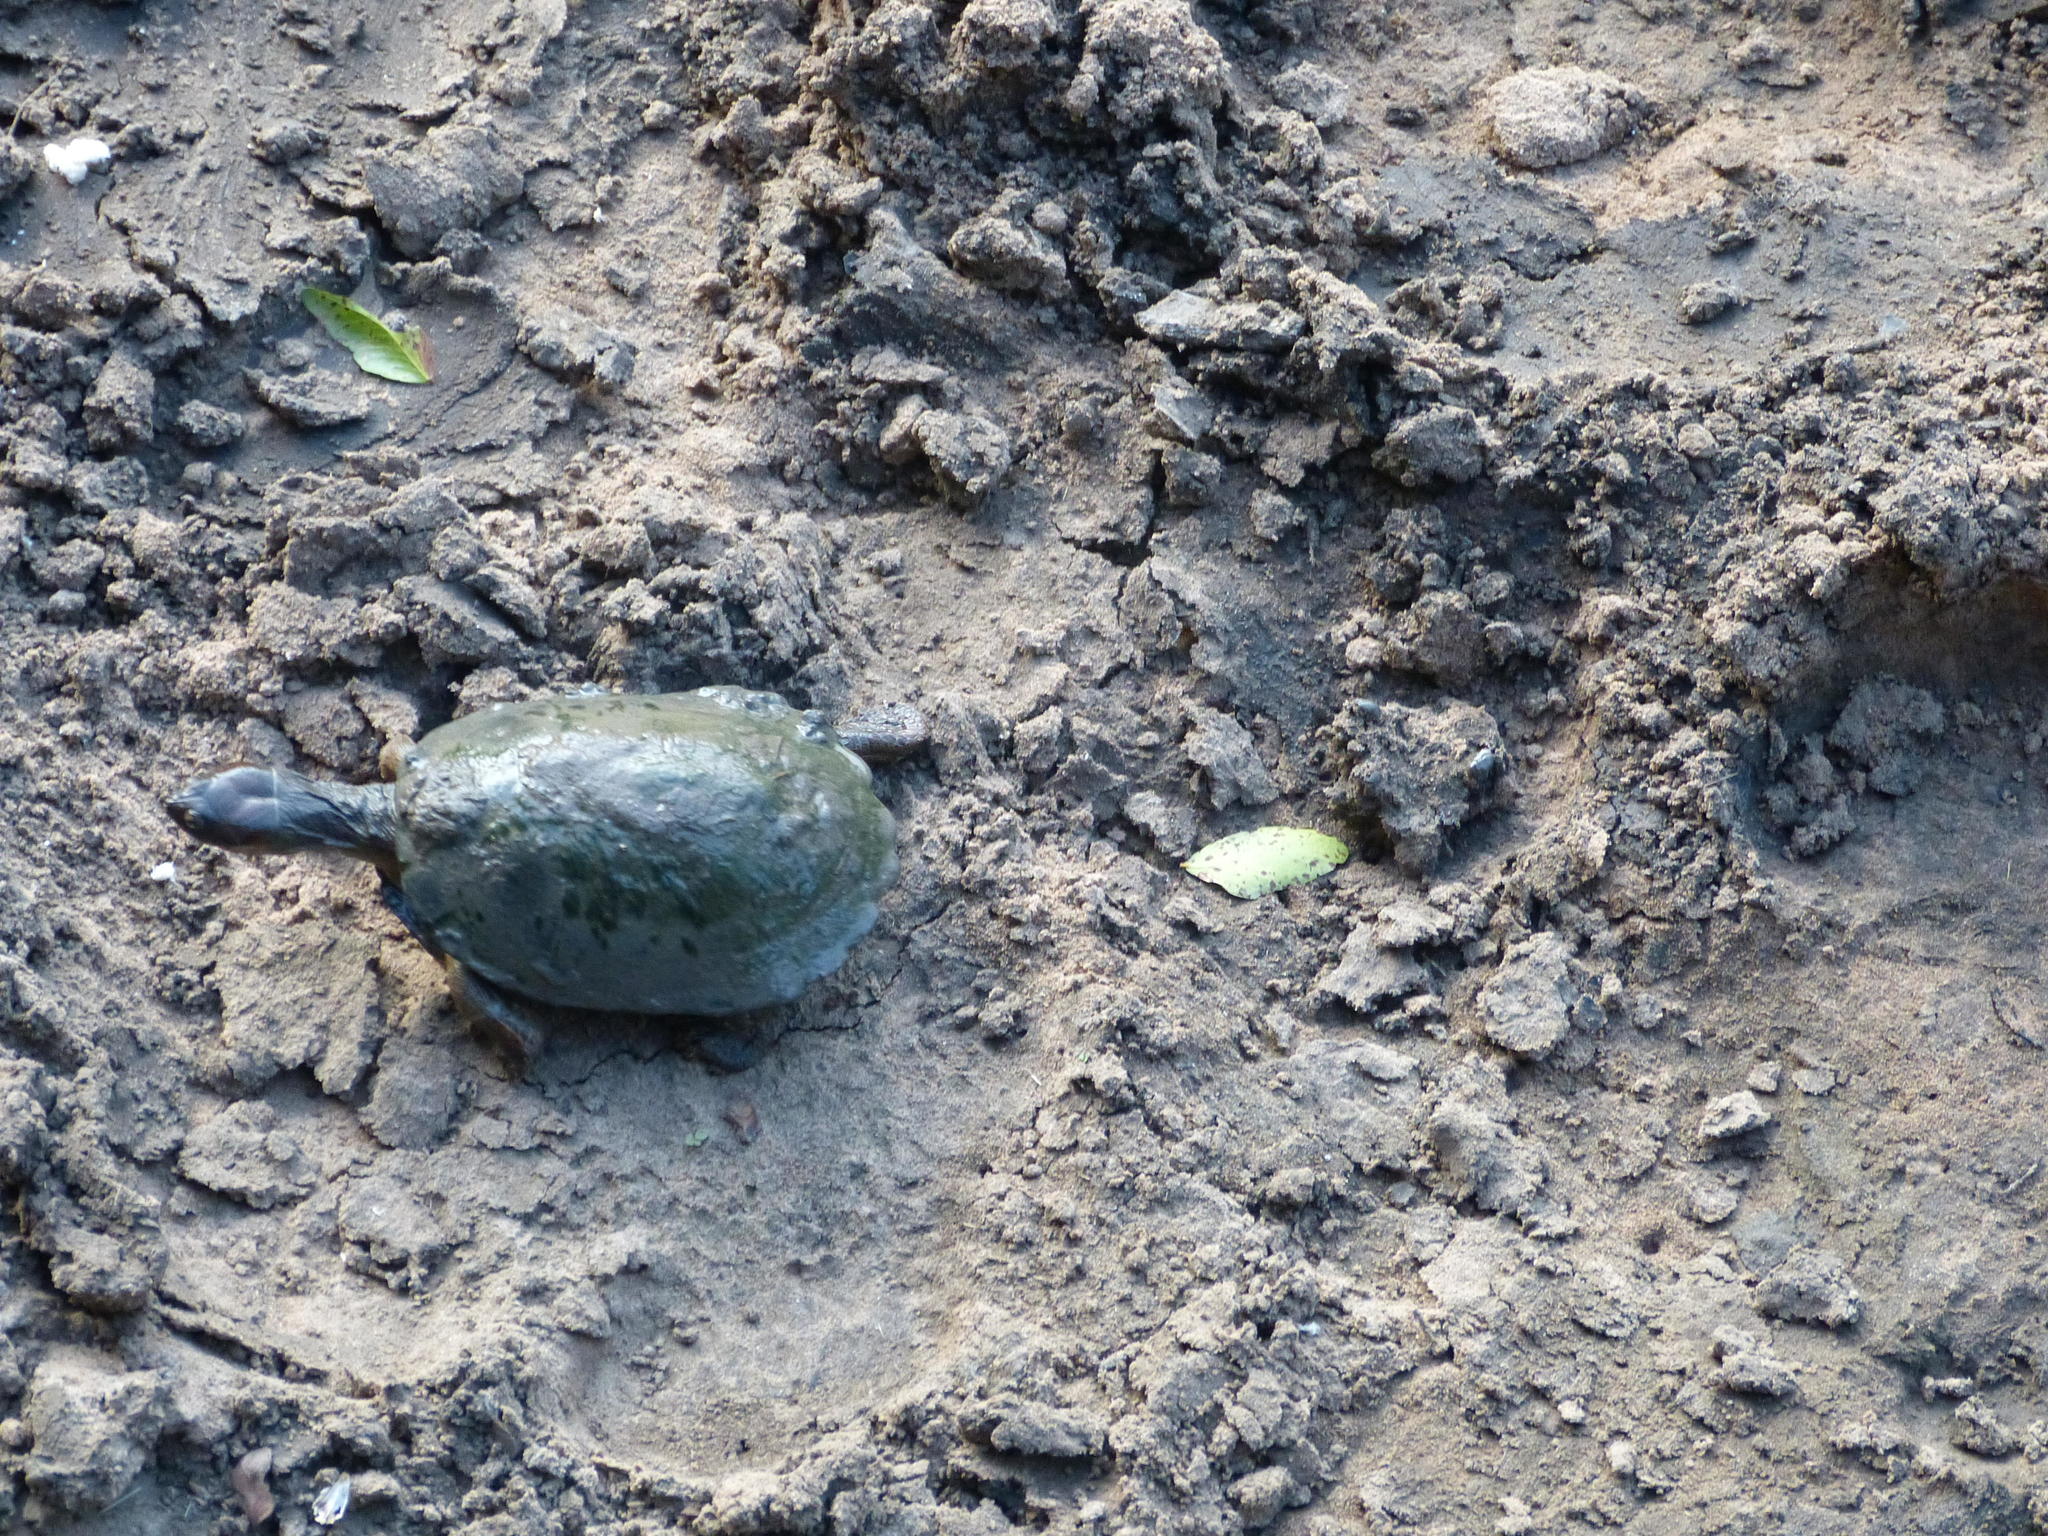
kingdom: Animalia
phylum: Chordata
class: Testudines
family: Pelomedusidae
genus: Pelusios
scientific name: Pelusios sinuatus
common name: Serrated hinged terrapin
